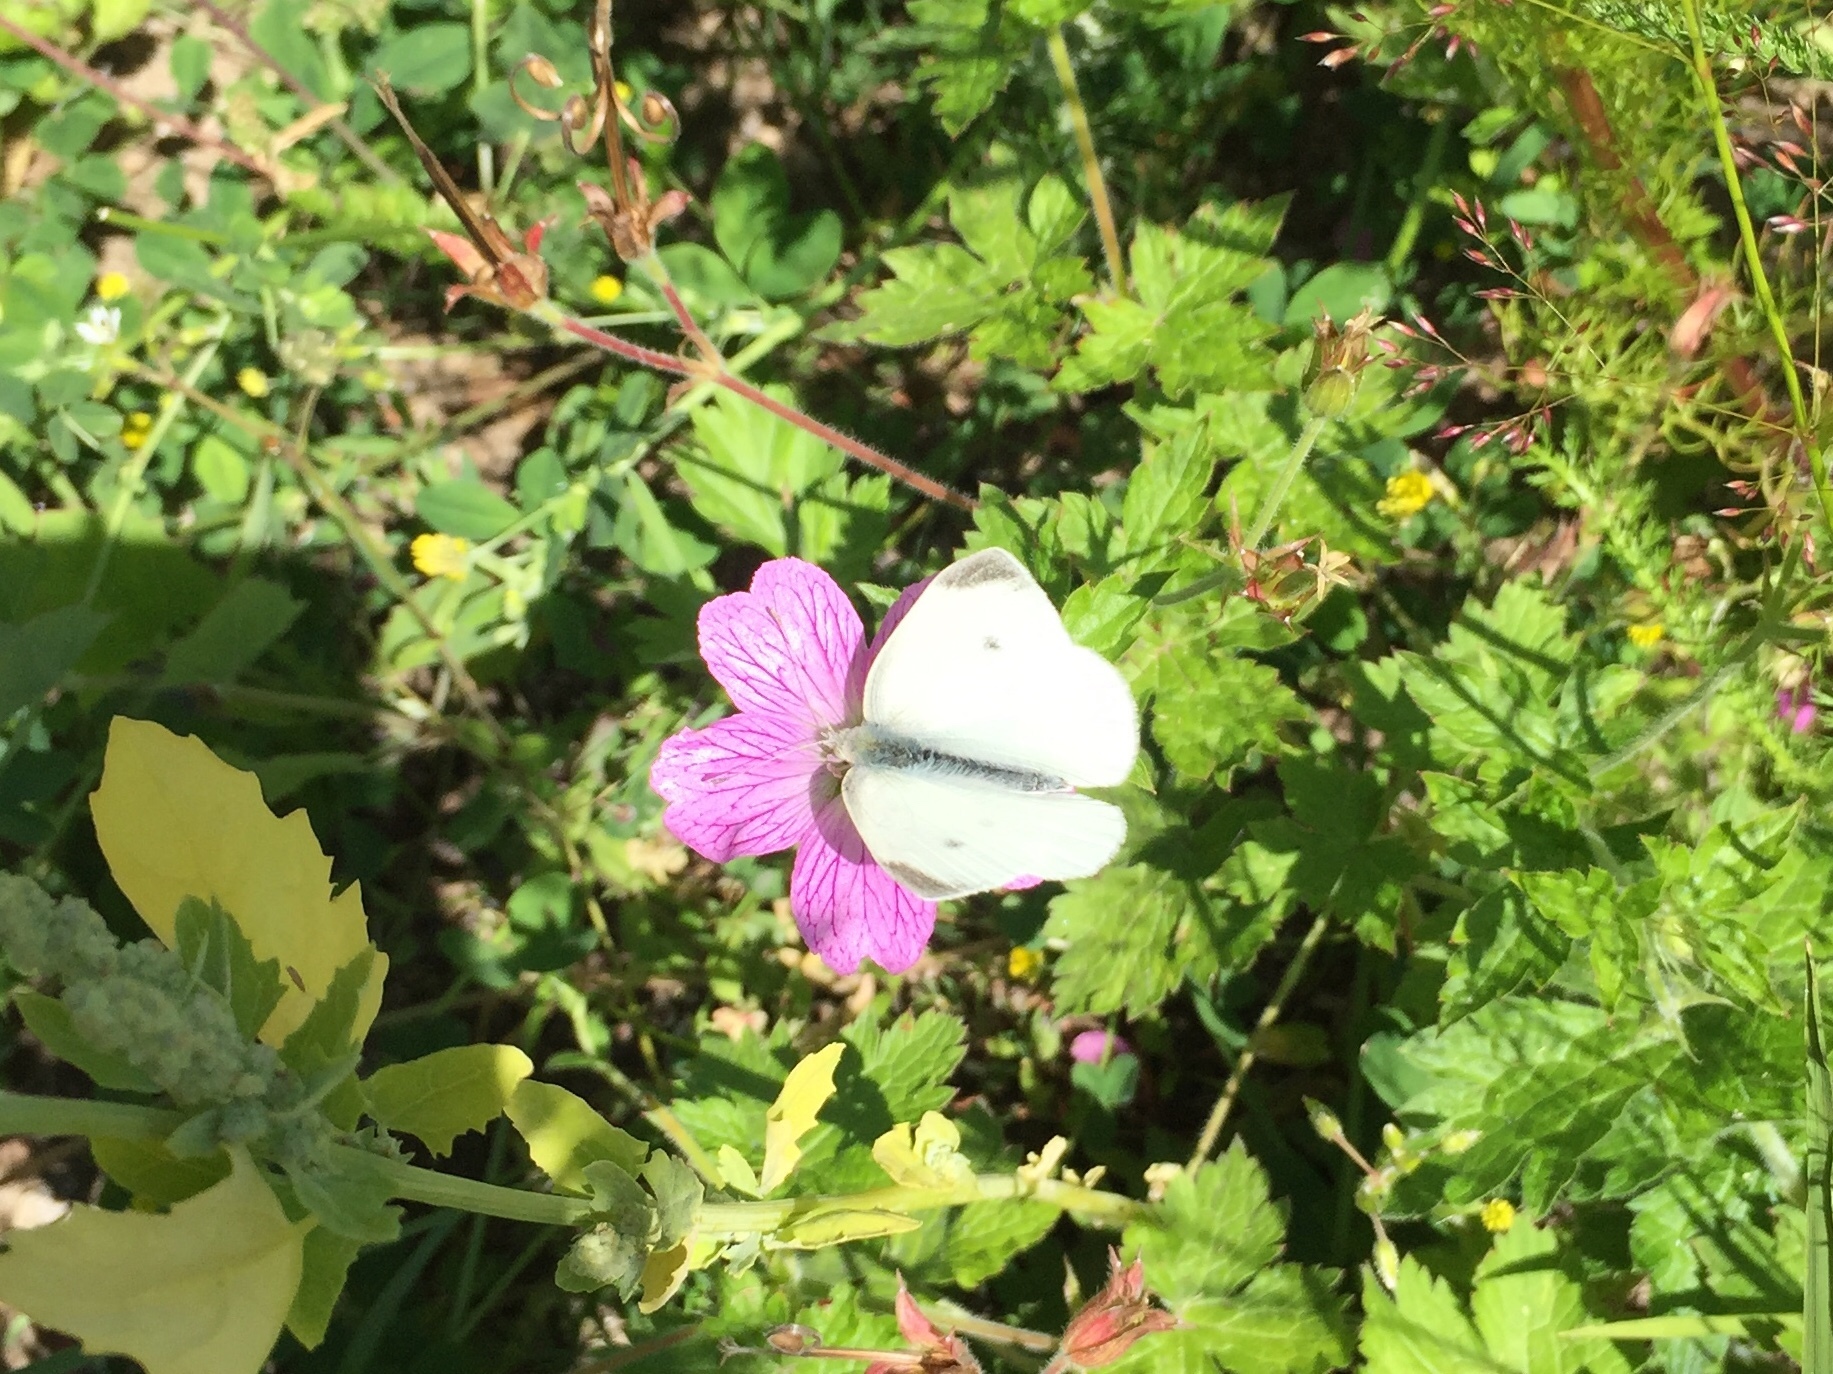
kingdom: Animalia
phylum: Arthropoda
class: Insecta
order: Lepidoptera
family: Pieridae
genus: Pieris
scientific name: Pieris rapae
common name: Small white
